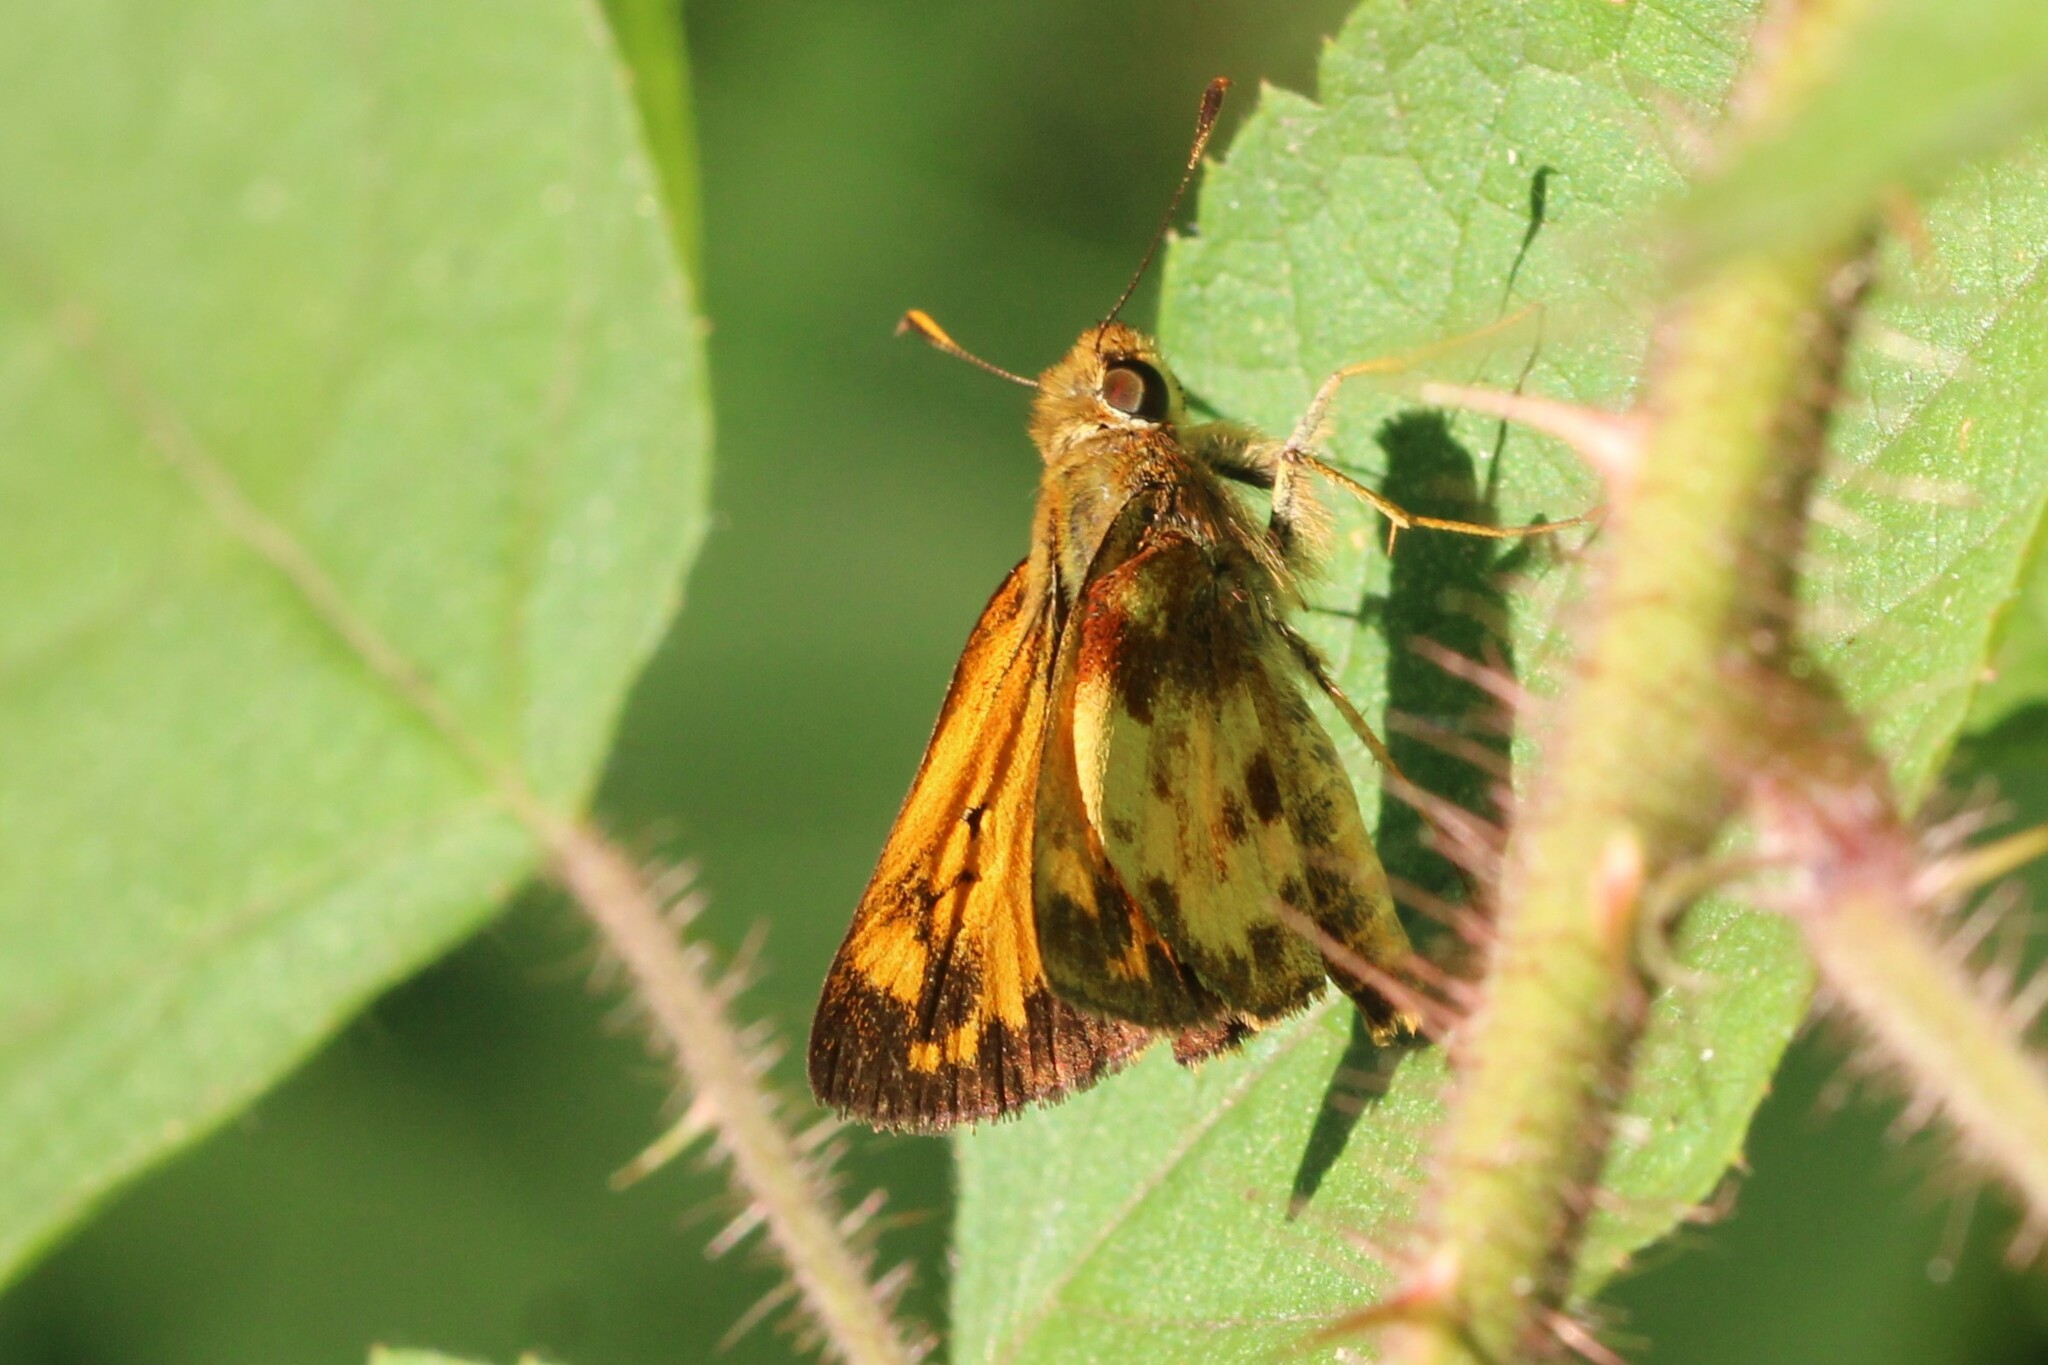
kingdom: Animalia
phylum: Arthropoda
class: Insecta
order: Lepidoptera
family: Hesperiidae
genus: Lon
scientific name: Lon zabulon
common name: Zabulon skipper
